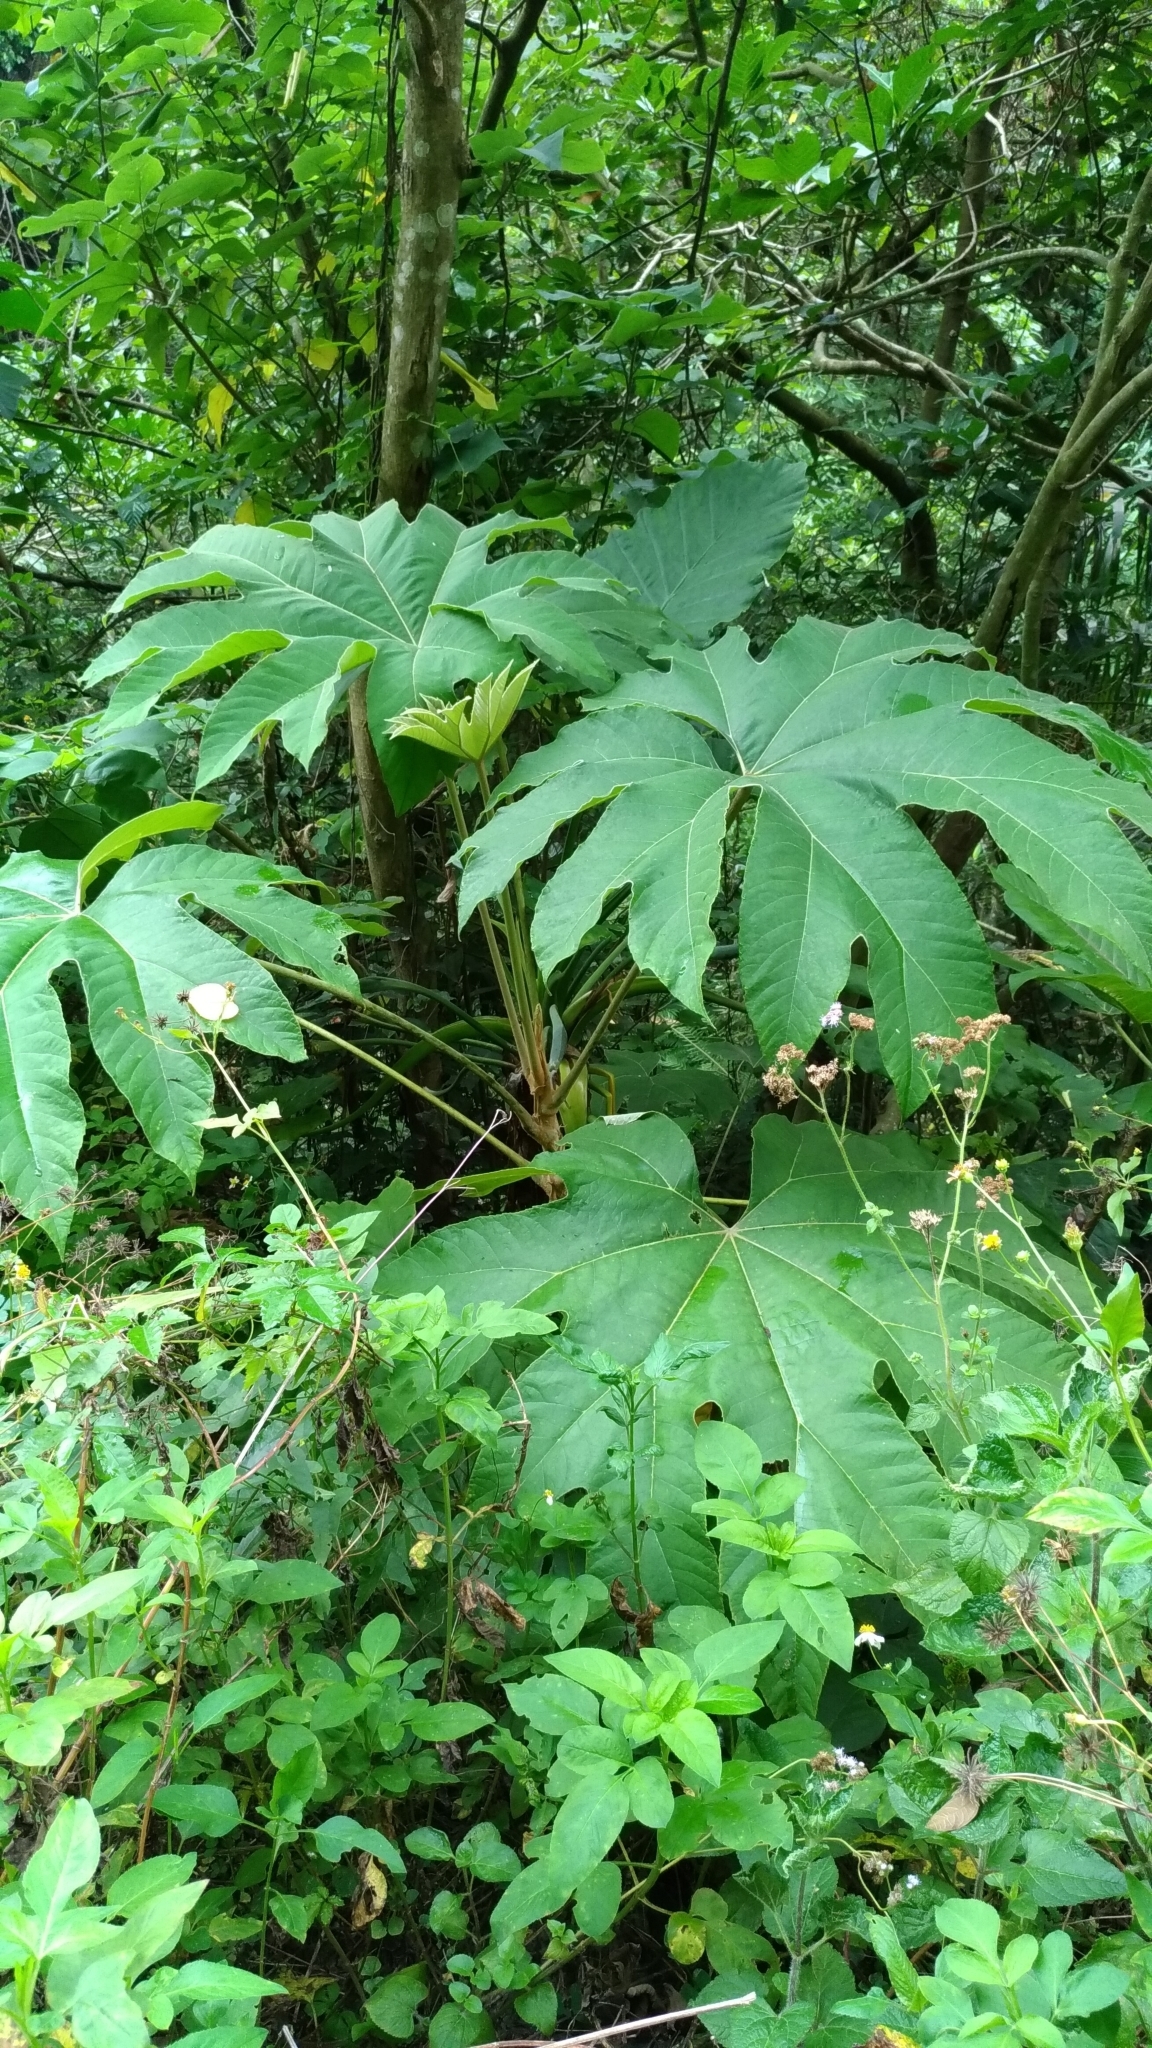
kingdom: Plantae
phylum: Tracheophyta
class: Magnoliopsida
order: Apiales
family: Araliaceae
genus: Tetrapanax
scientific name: Tetrapanax papyrifer
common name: Rice-paper plant
